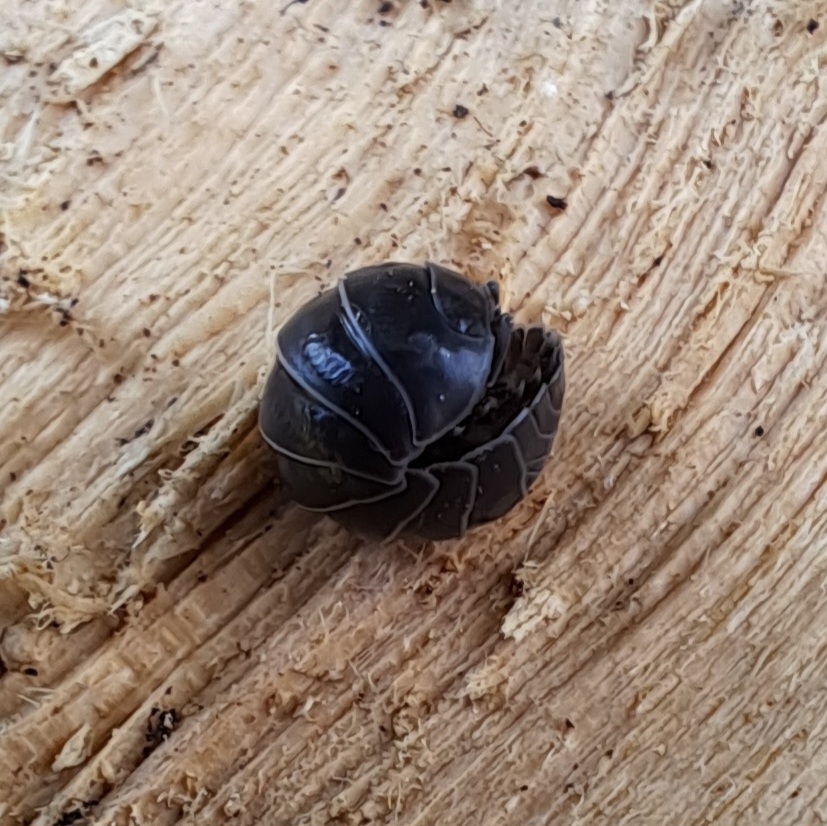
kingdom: Animalia
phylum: Arthropoda
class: Malacostraca
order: Isopoda
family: Armadillidiidae
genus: Armadillidium
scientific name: Armadillidium vulgare
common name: Common pill woodlouse
